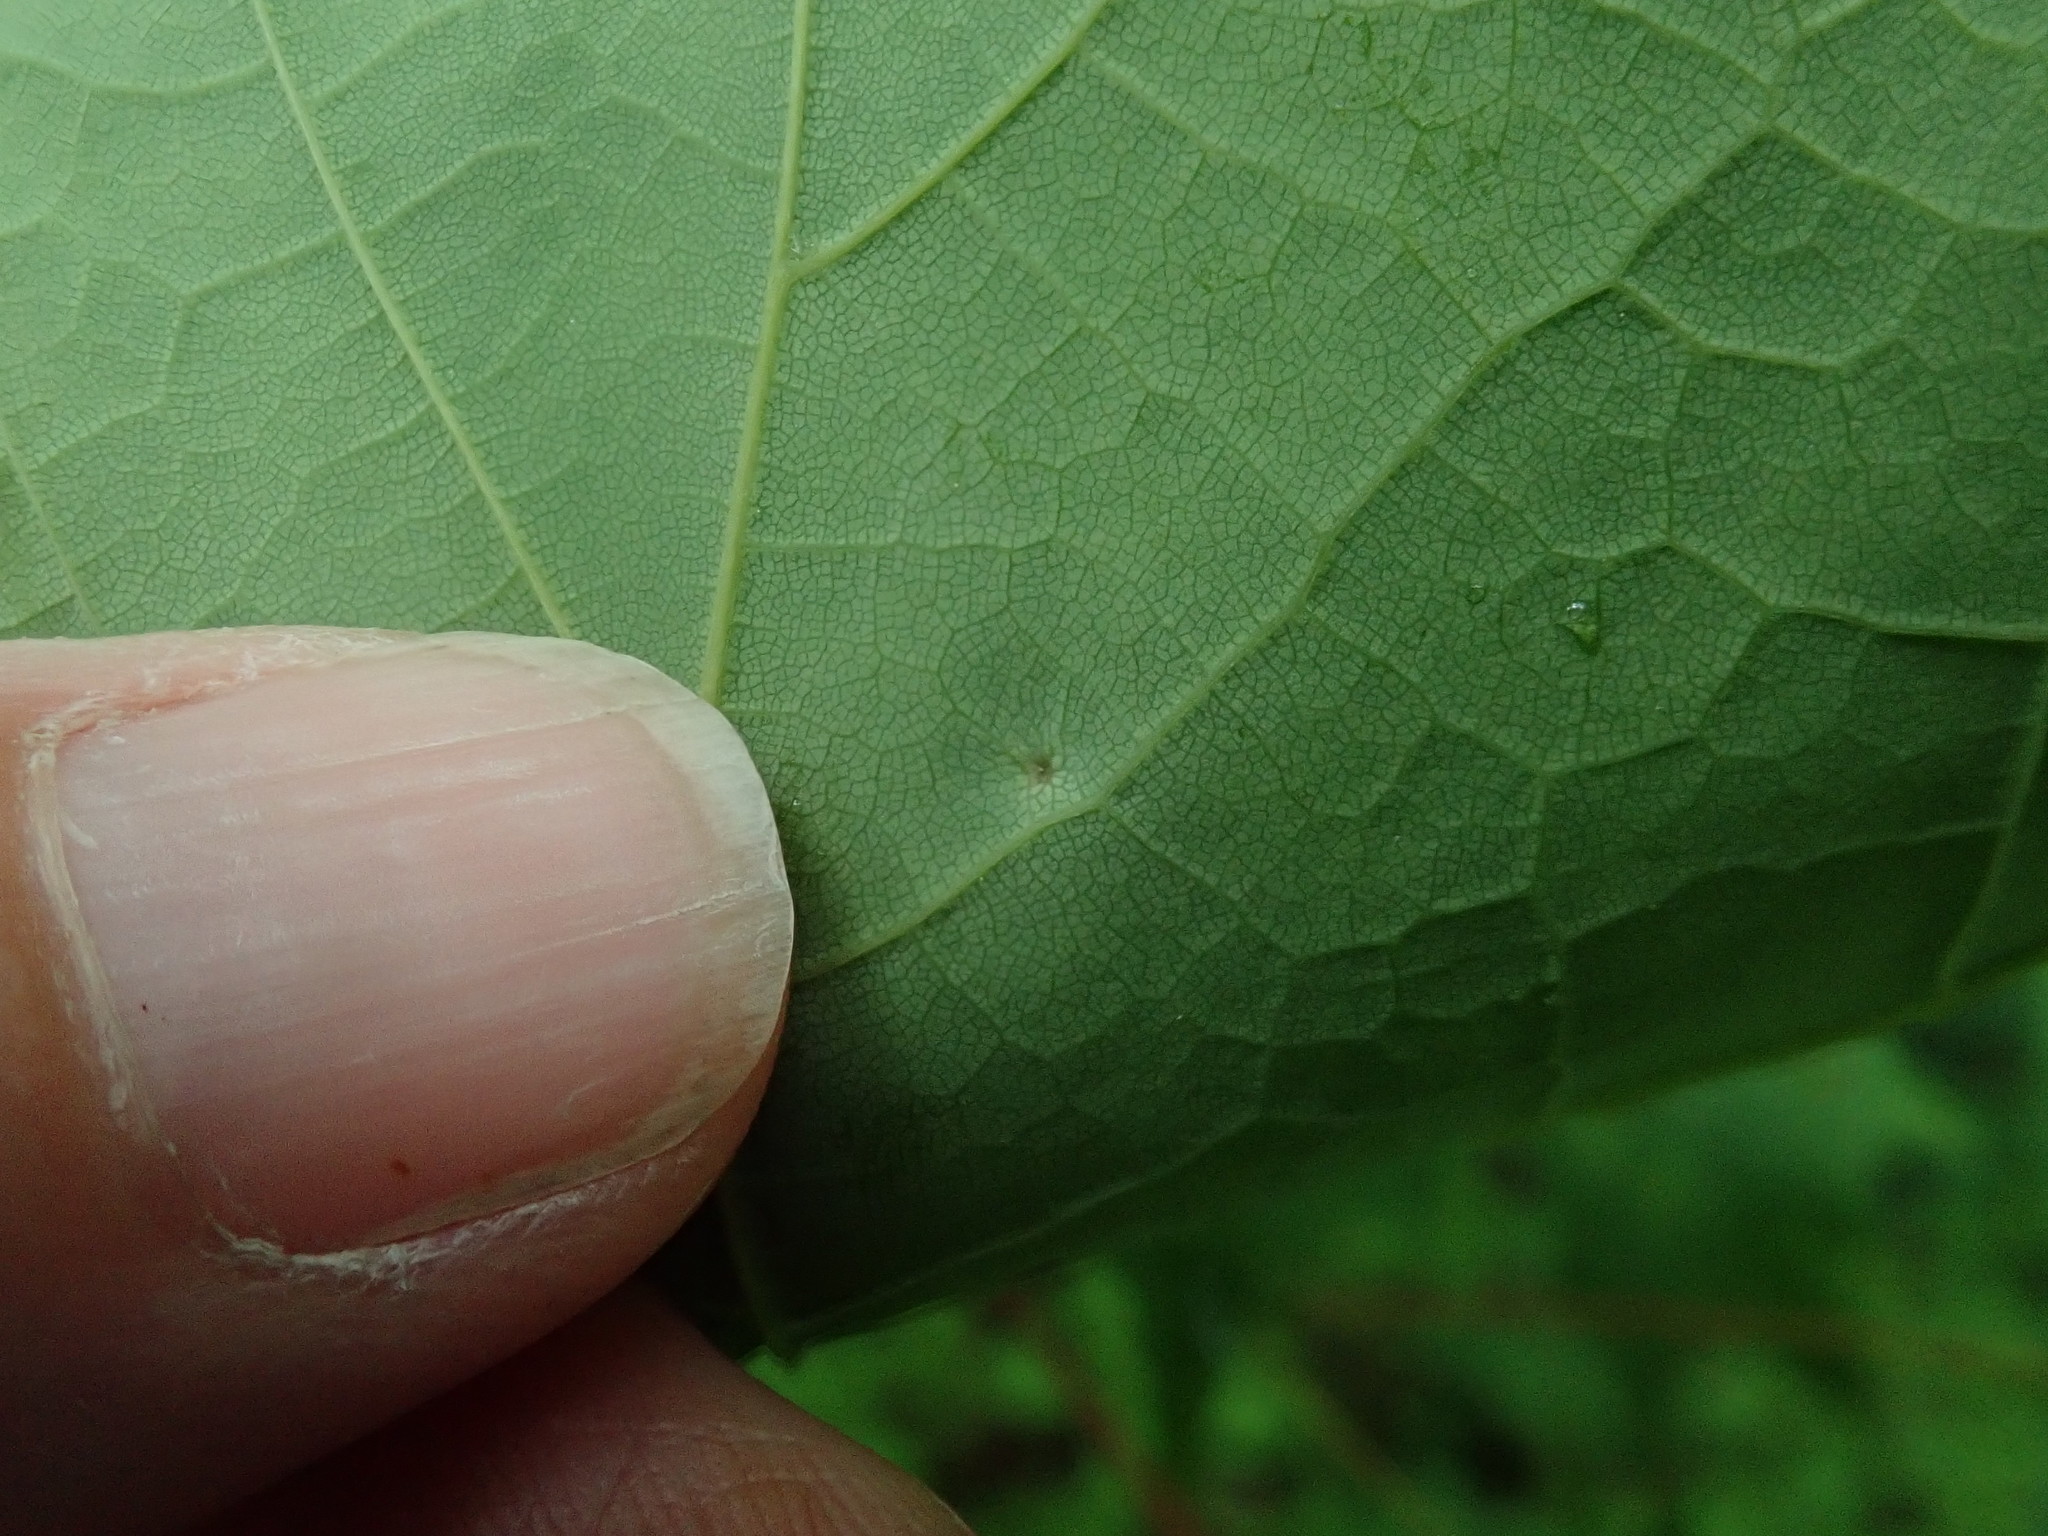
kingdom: Animalia
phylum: Arthropoda
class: Arachnida
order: Trombidiformes
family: Eriophyidae
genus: Vasates
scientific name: Vasates aceriscrumena
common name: Maple spindle gall mite
